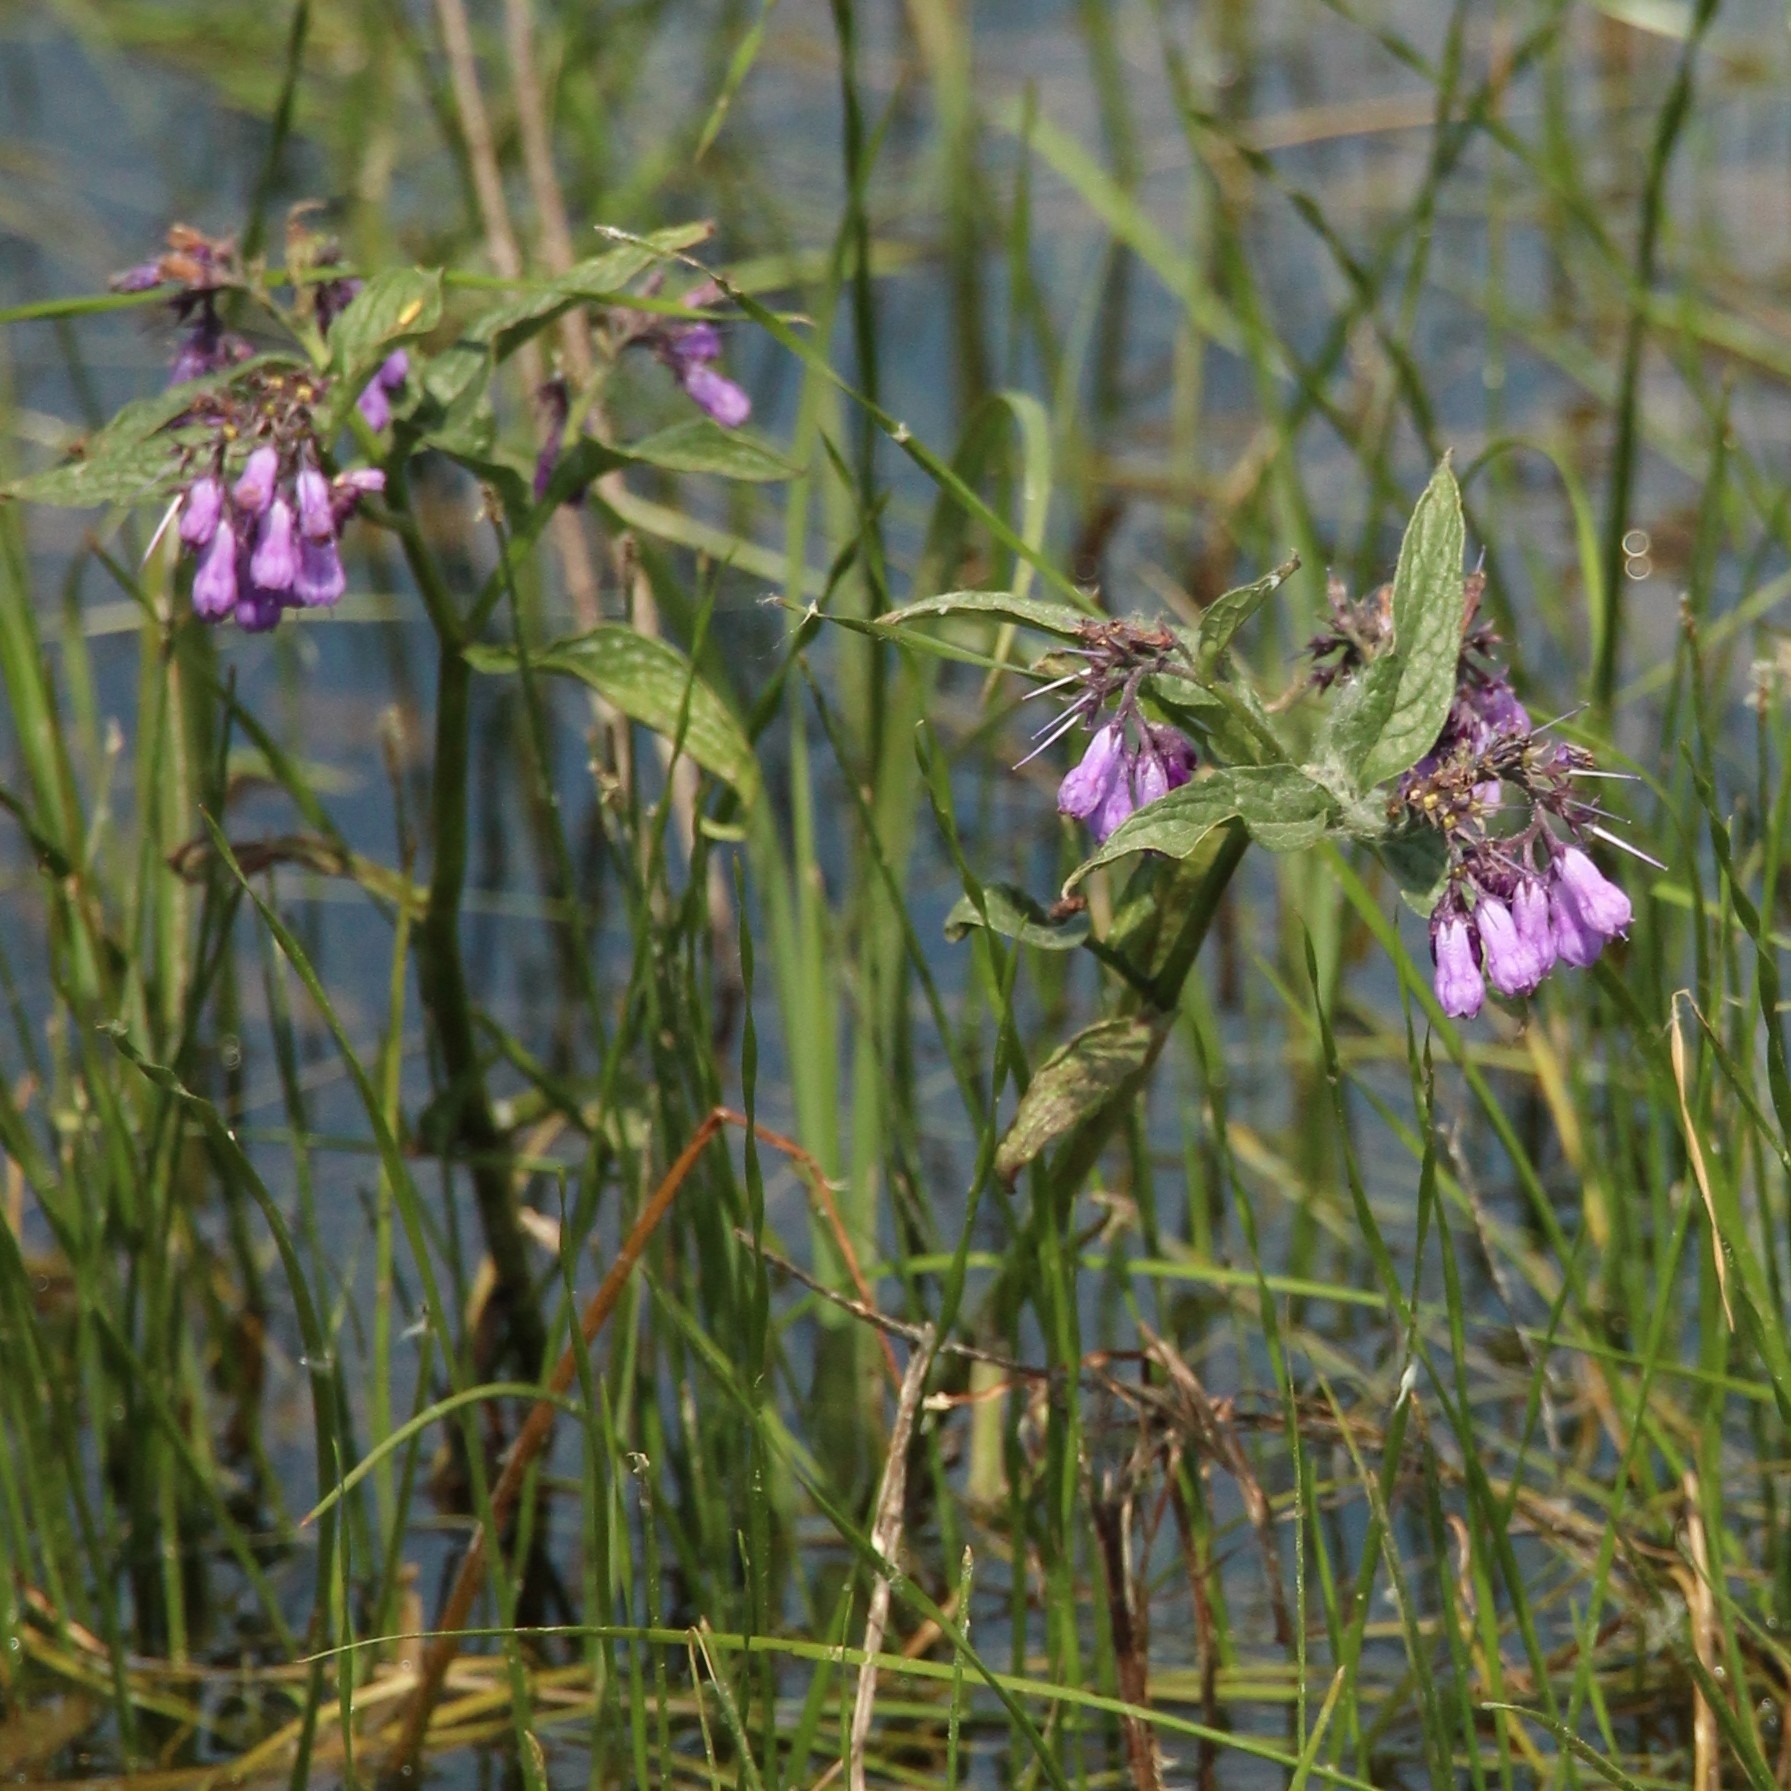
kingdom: Plantae
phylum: Tracheophyta
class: Magnoliopsida
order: Boraginales
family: Boraginaceae
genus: Symphytum
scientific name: Symphytum officinale
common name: Common comfrey
